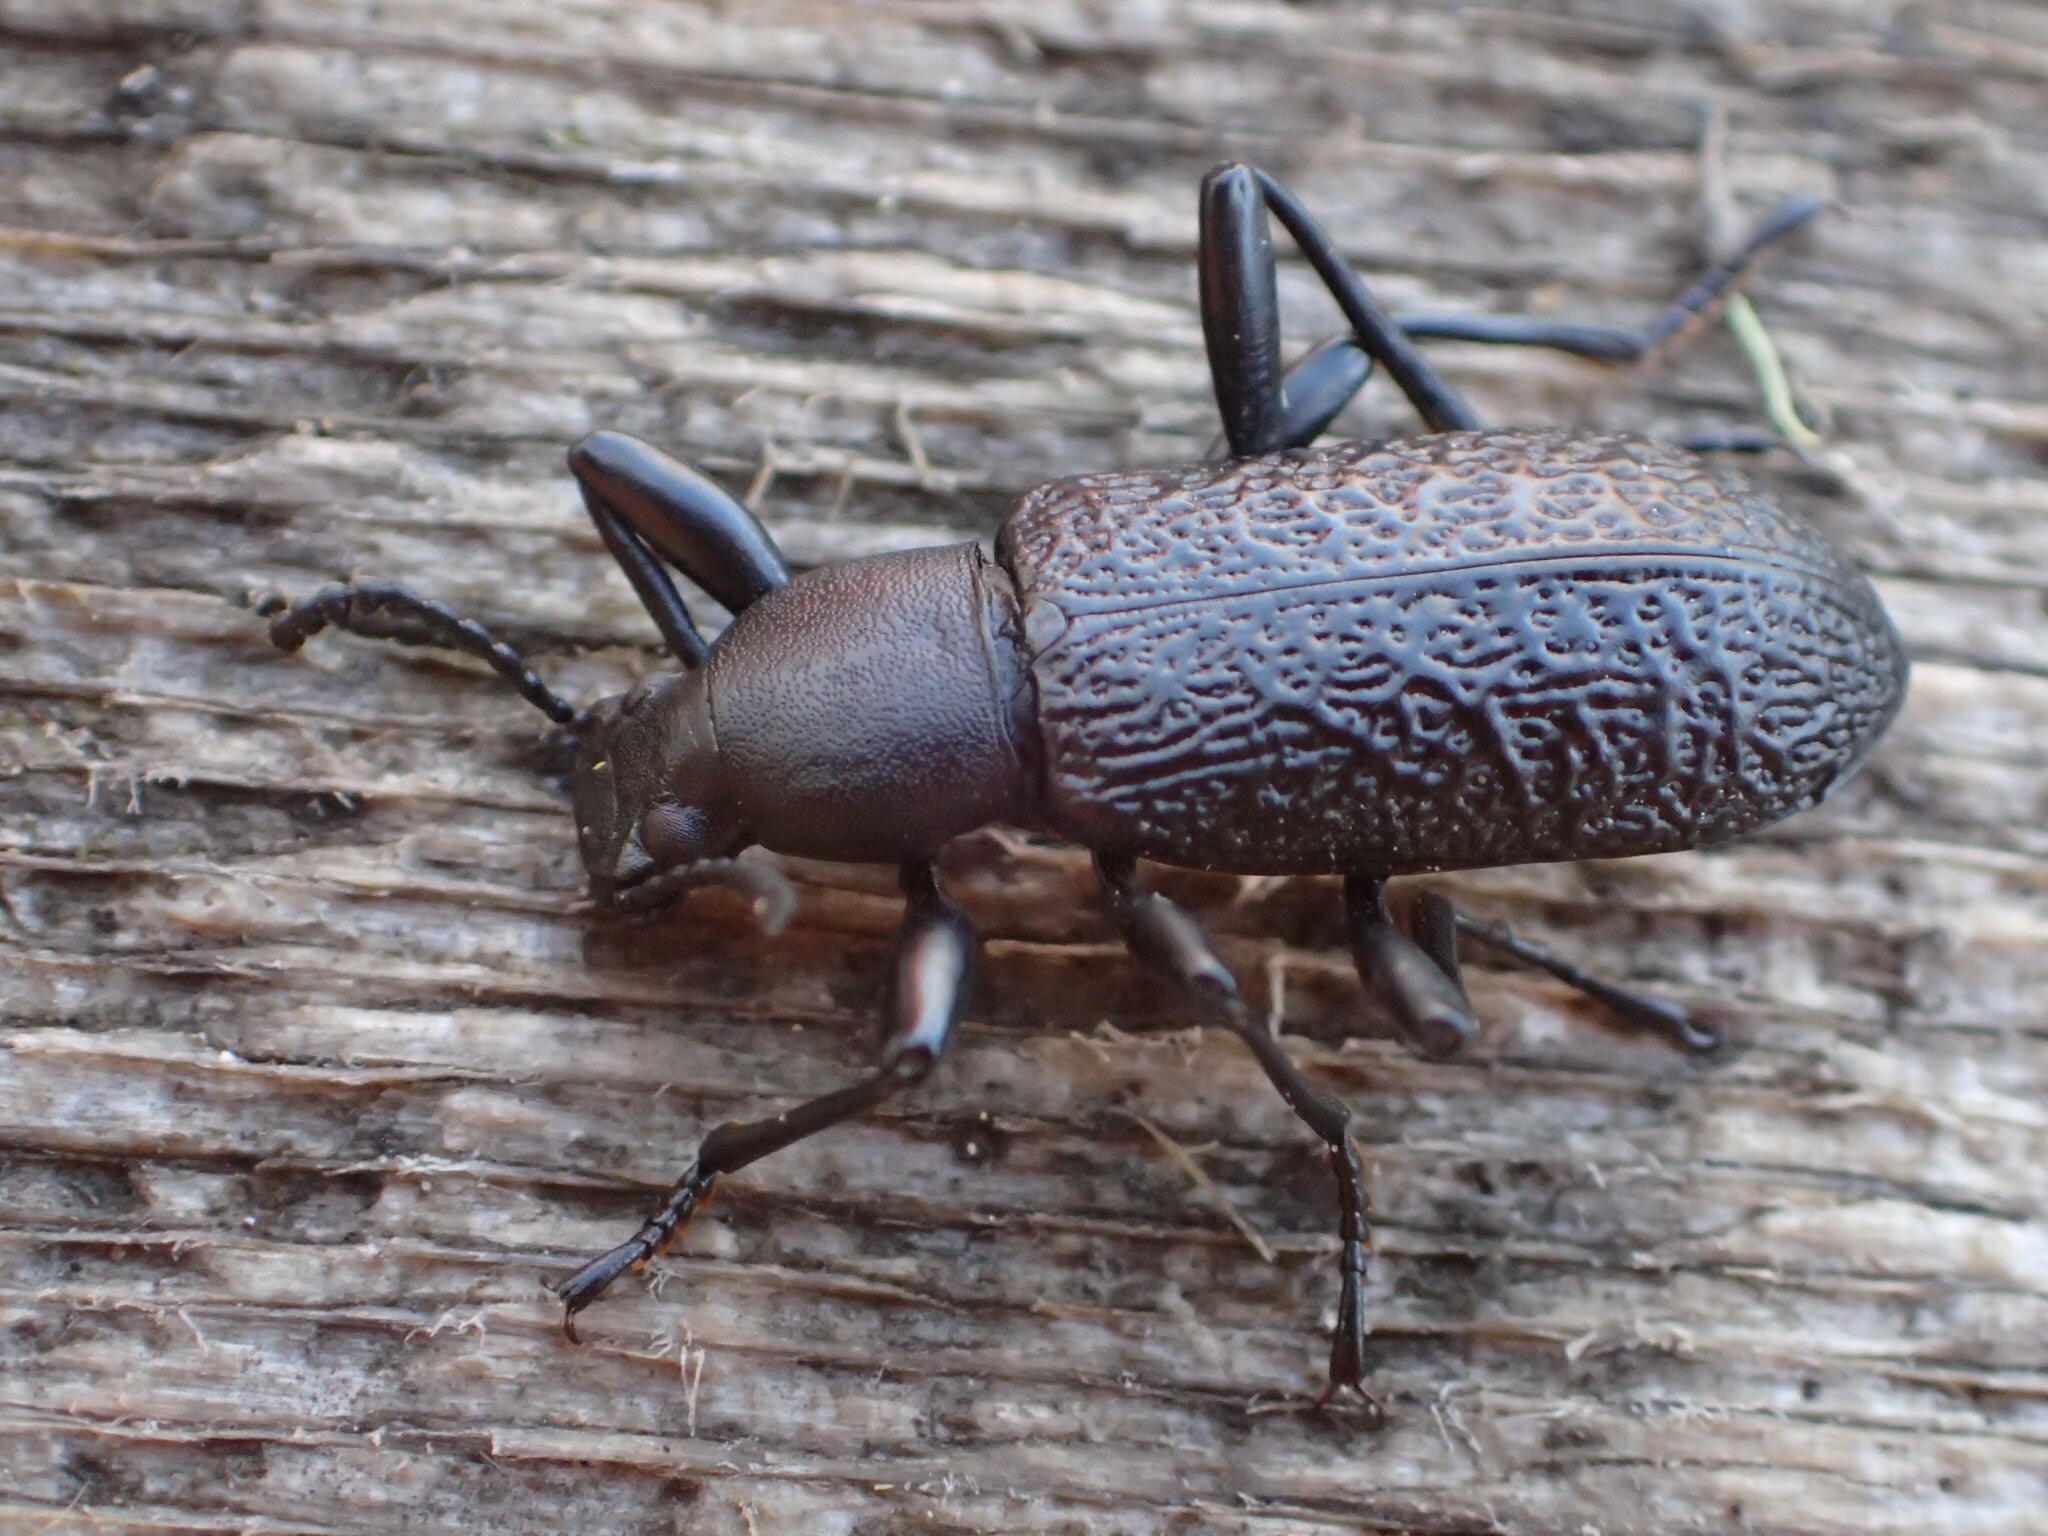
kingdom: Animalia
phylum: Arthropoda
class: Insecta
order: Coleoptera
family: Tenebrionidae
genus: Upis
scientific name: Upis ceramboides
